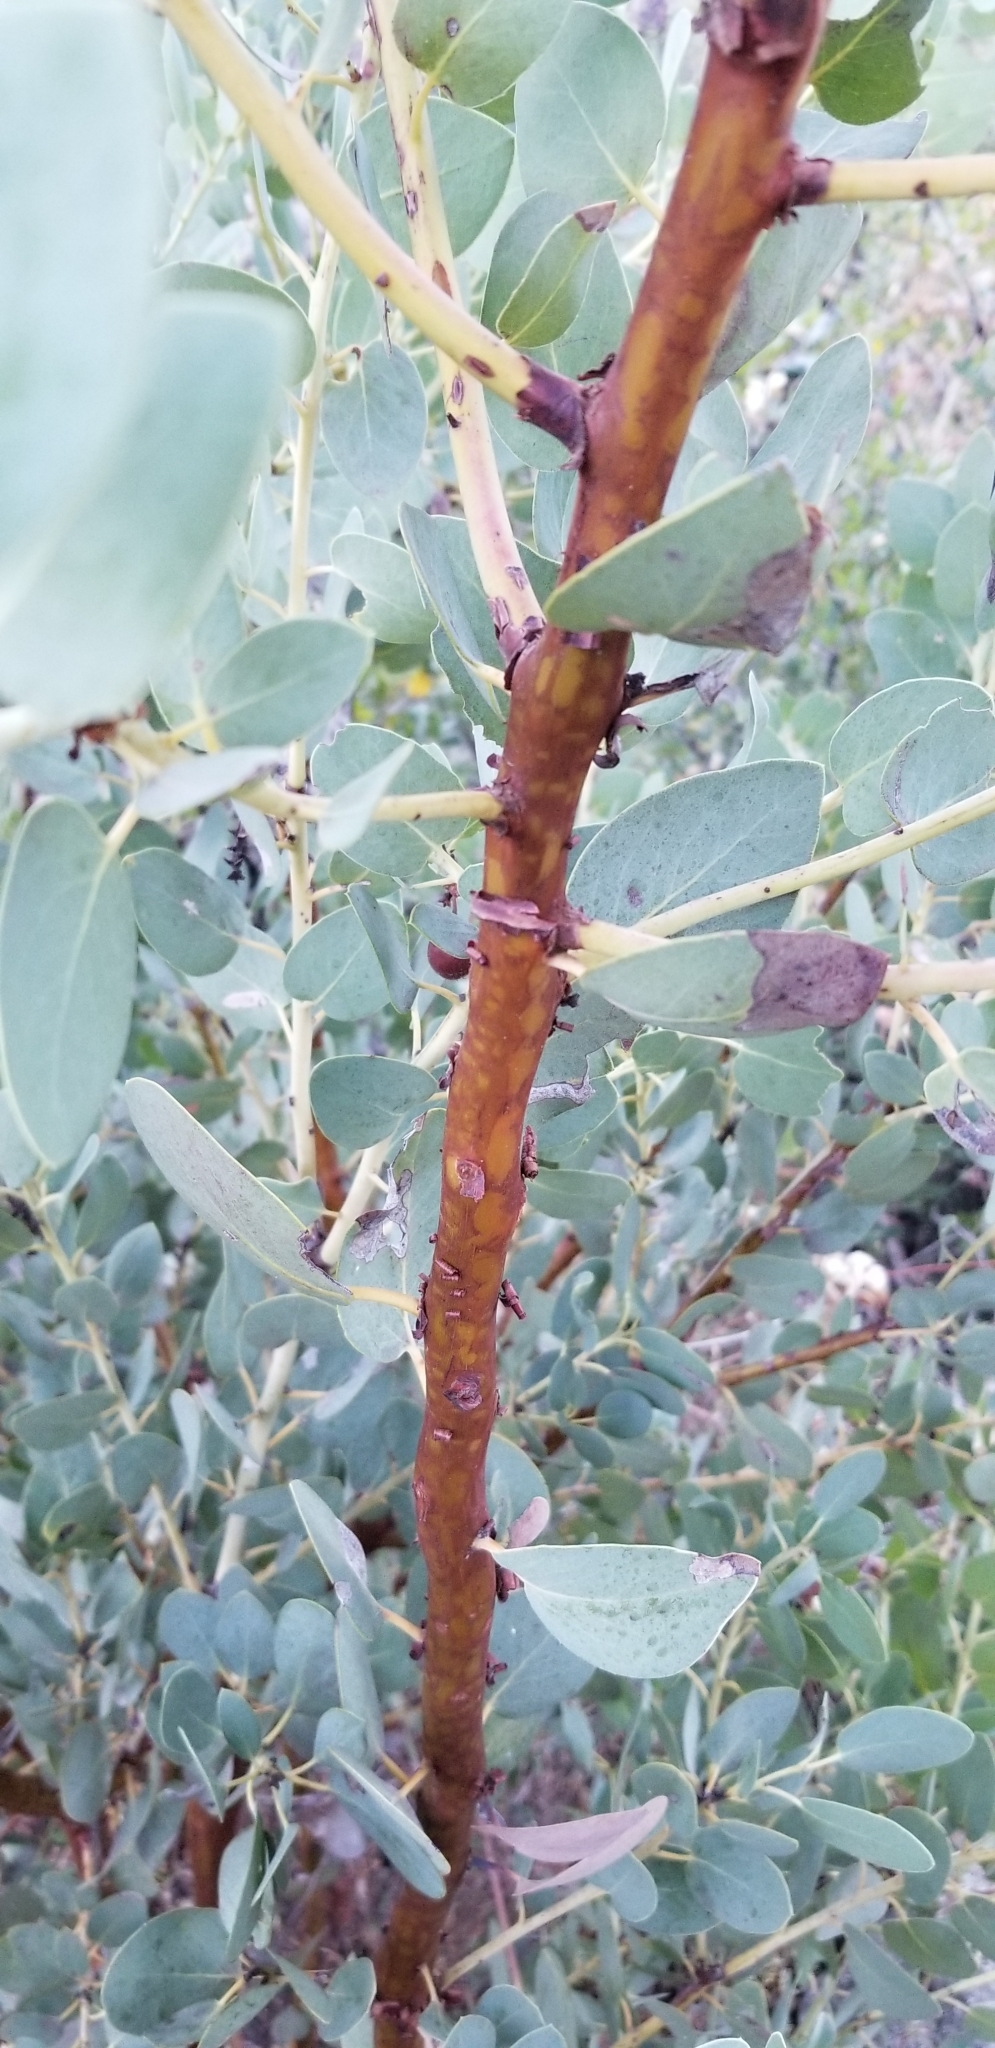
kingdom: Plantae
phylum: Tracheophyta
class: Magnoliopsida
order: Ericales
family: Ericaceae
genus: Arctostaphylos
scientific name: Arctostaphylos glauca
